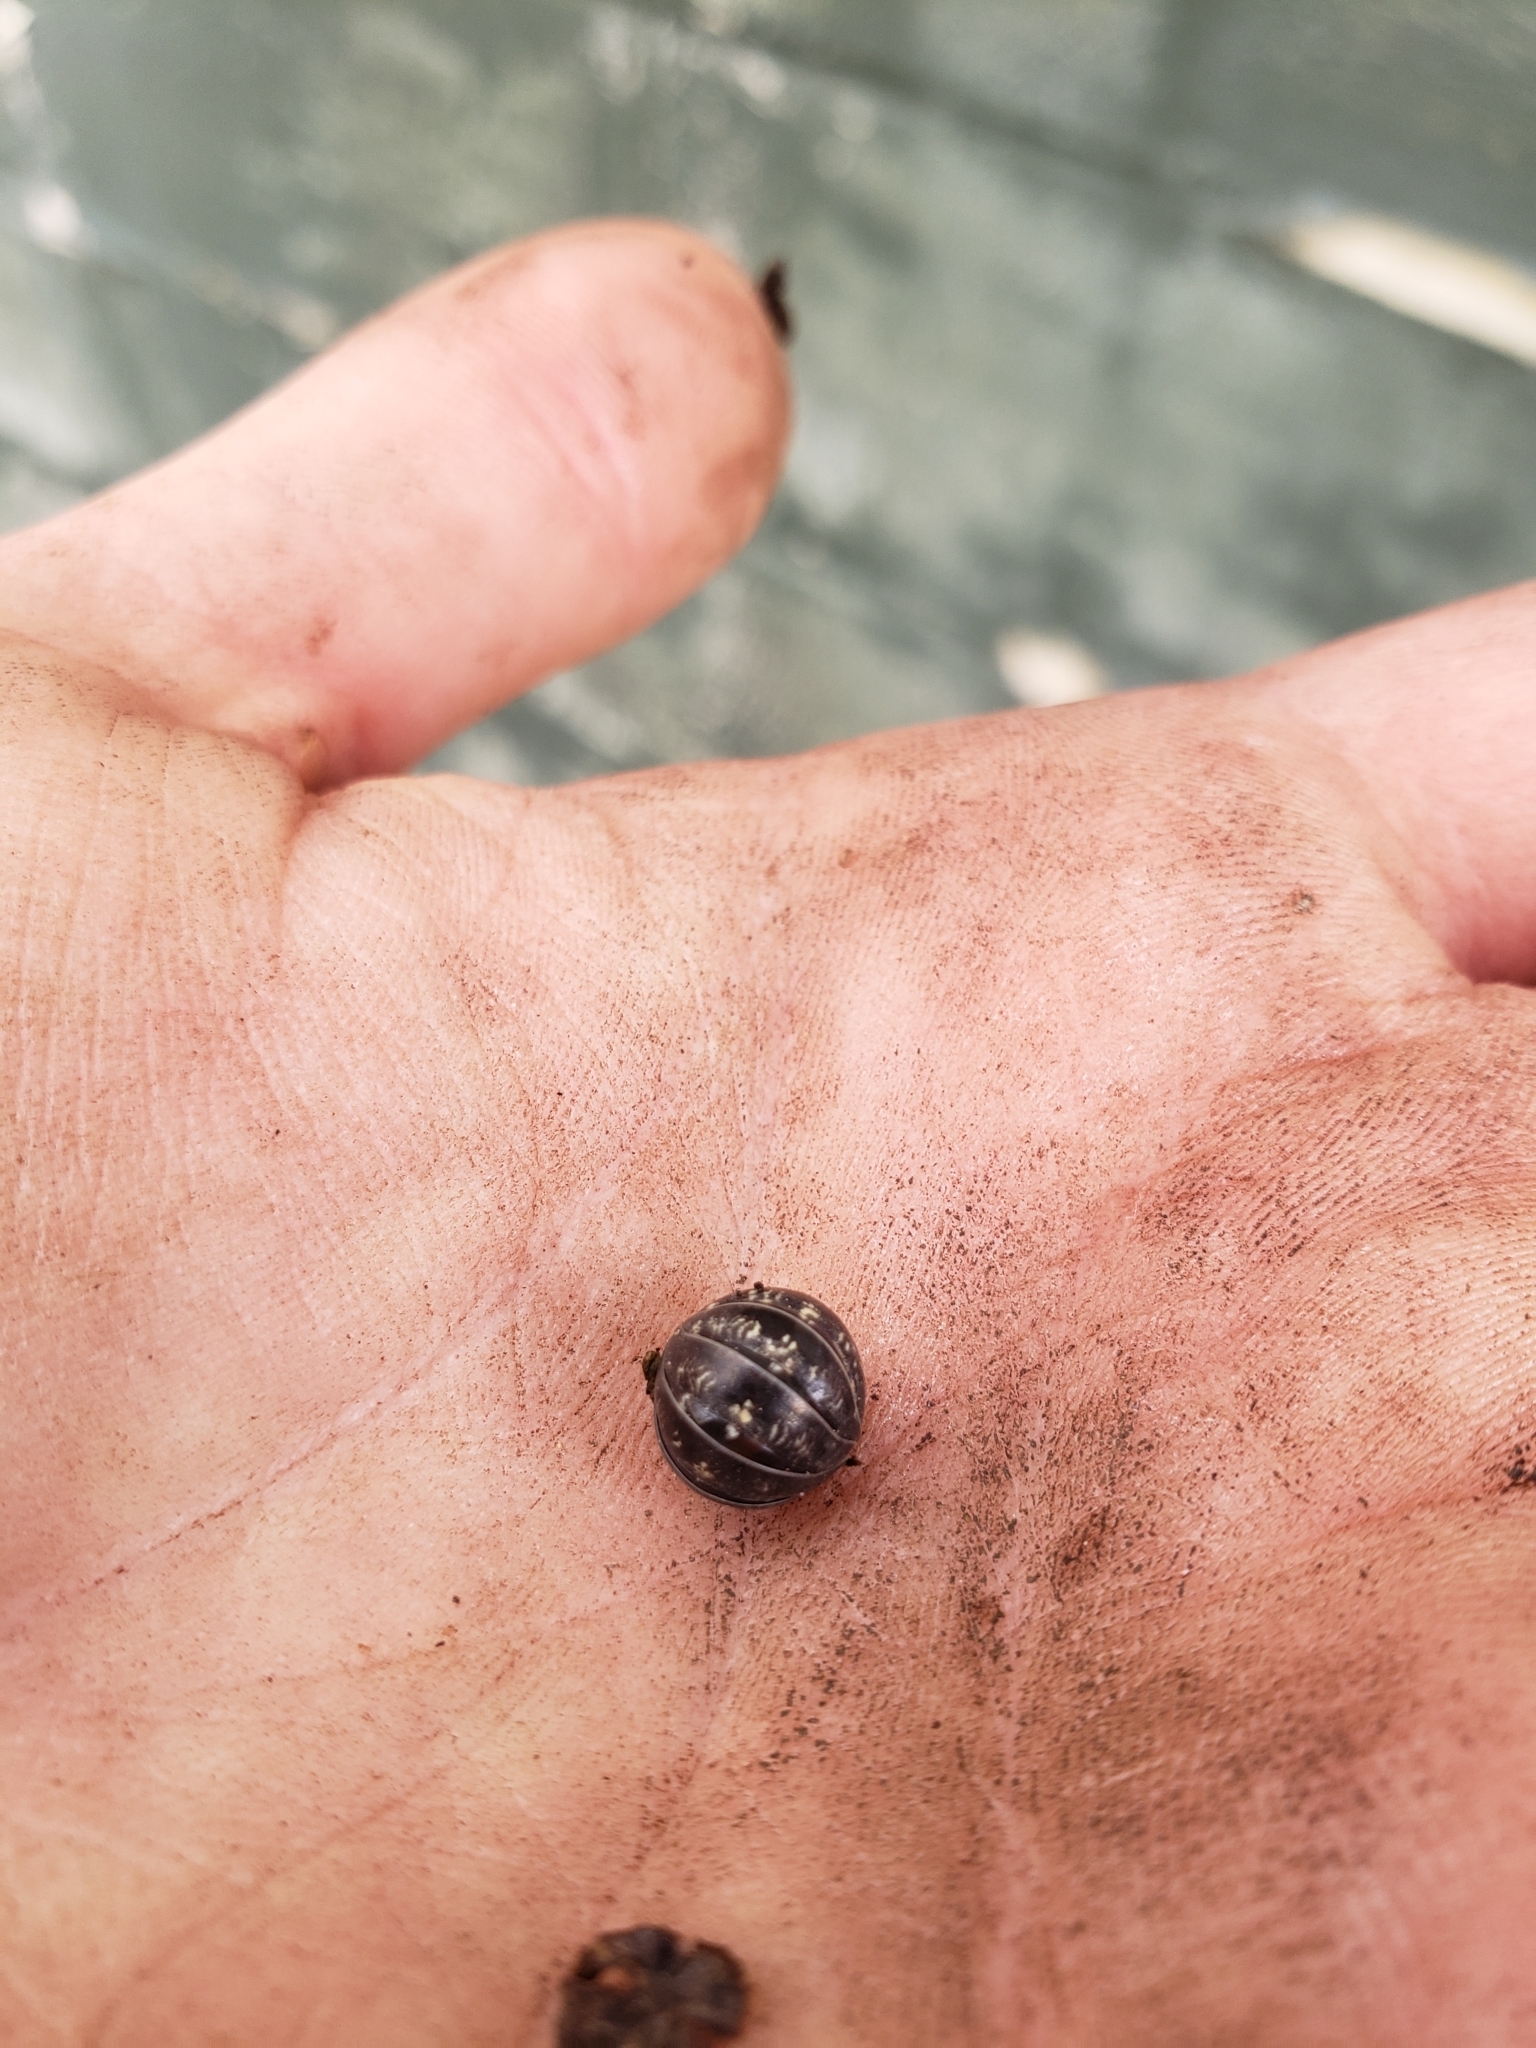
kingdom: Animalia
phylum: Arthropoda
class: Malacostraca
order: Isopoda
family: Armadillidiidae
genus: Armadillidium
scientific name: Armadillidium vulgare
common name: Common pill woodlouse
